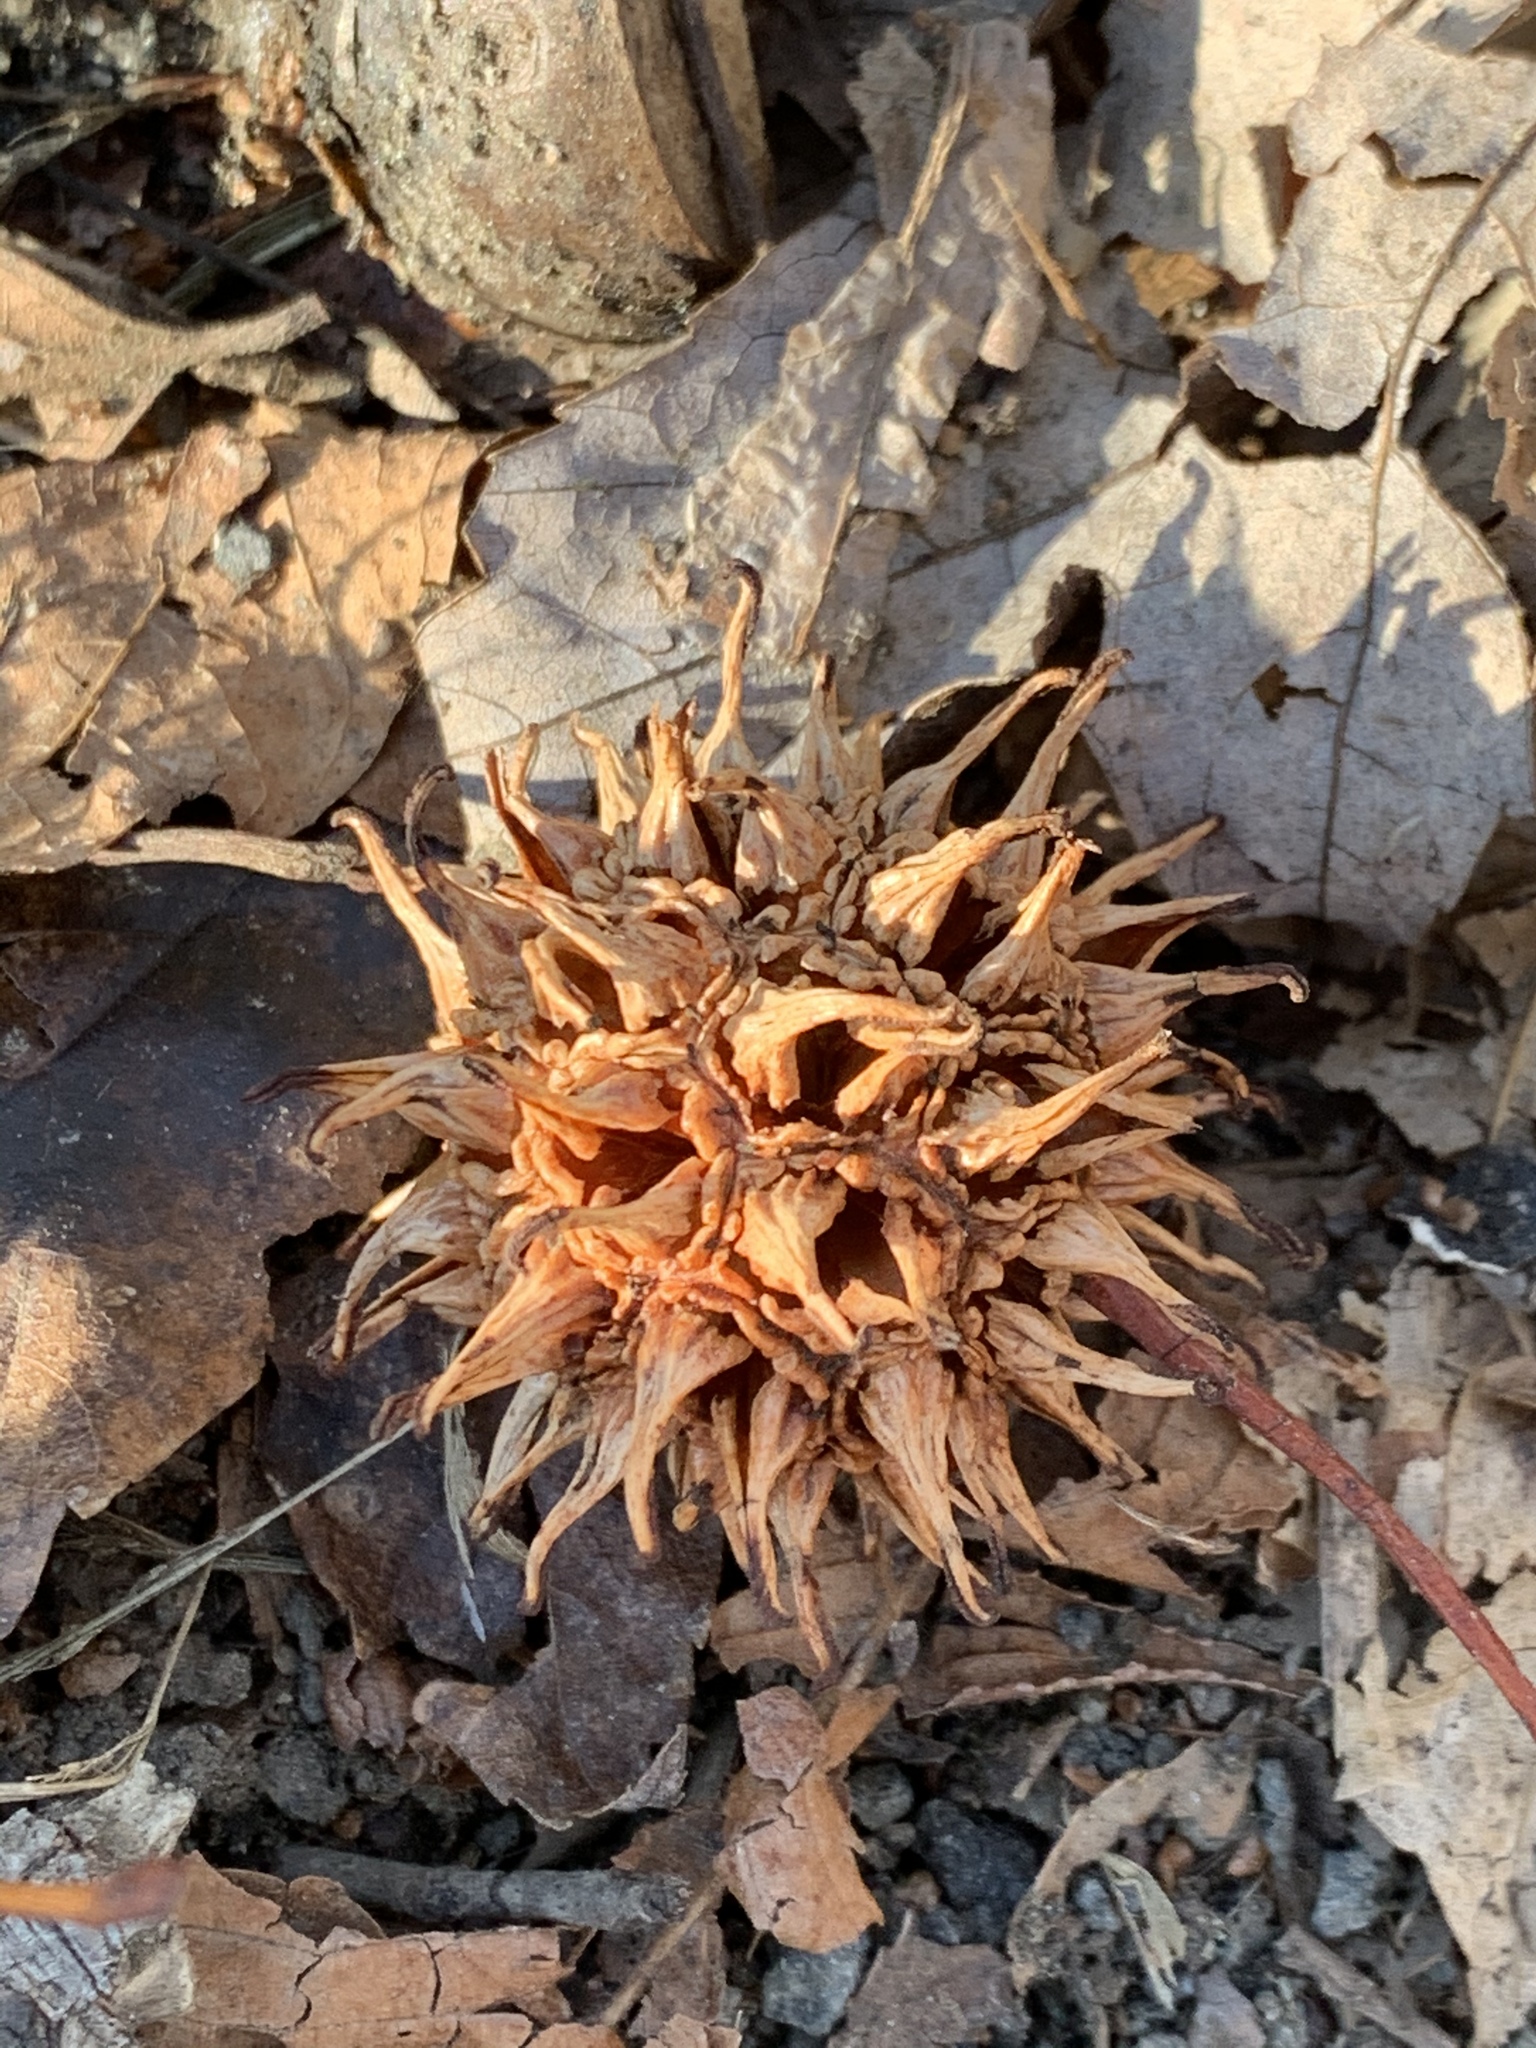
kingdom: Plantae
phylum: Tracheophyta
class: Magnoliopsida
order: Saxifragales
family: Altingiaceae
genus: Liquidambar
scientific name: Liquidambar styraciflua
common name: Sweet gum
